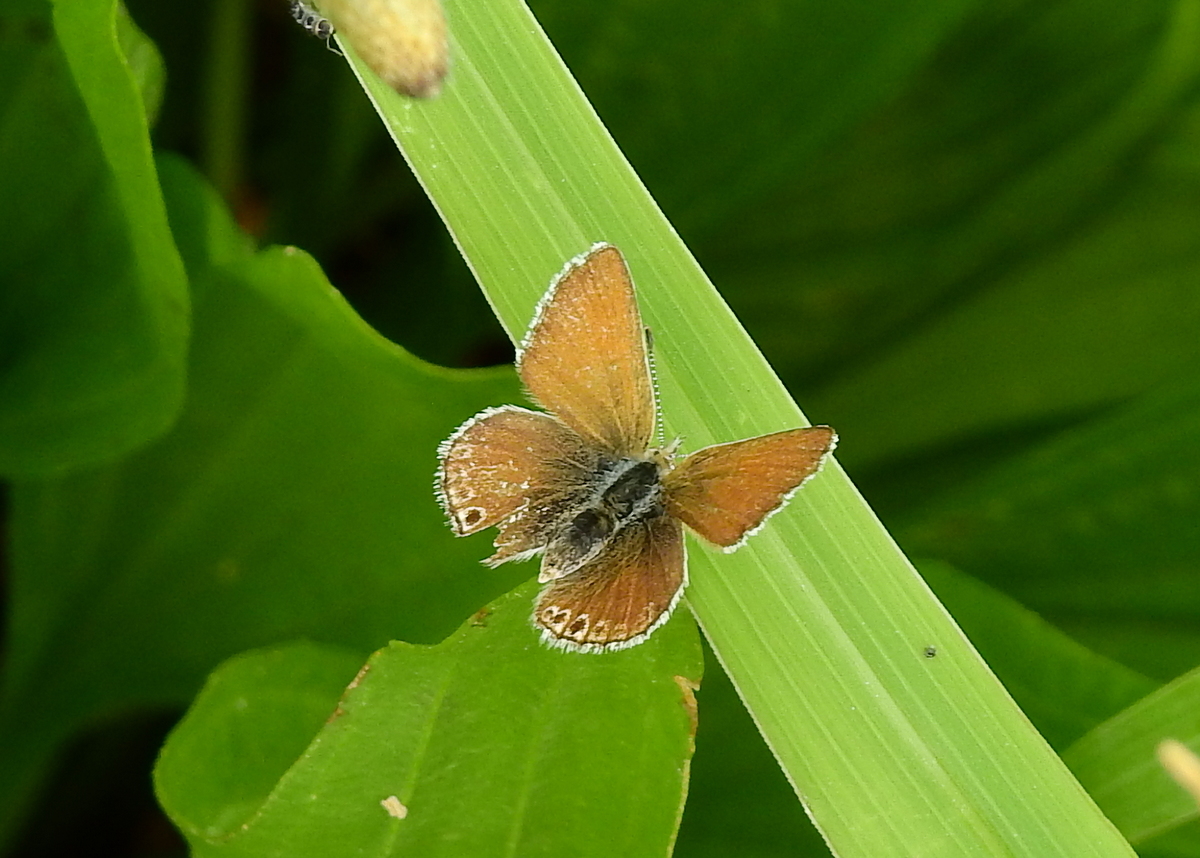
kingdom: Animalia
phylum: Arthropoda
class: Insecta
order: Lepidoptera
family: Lycaenidae
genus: Itylos
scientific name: Itylos moza
